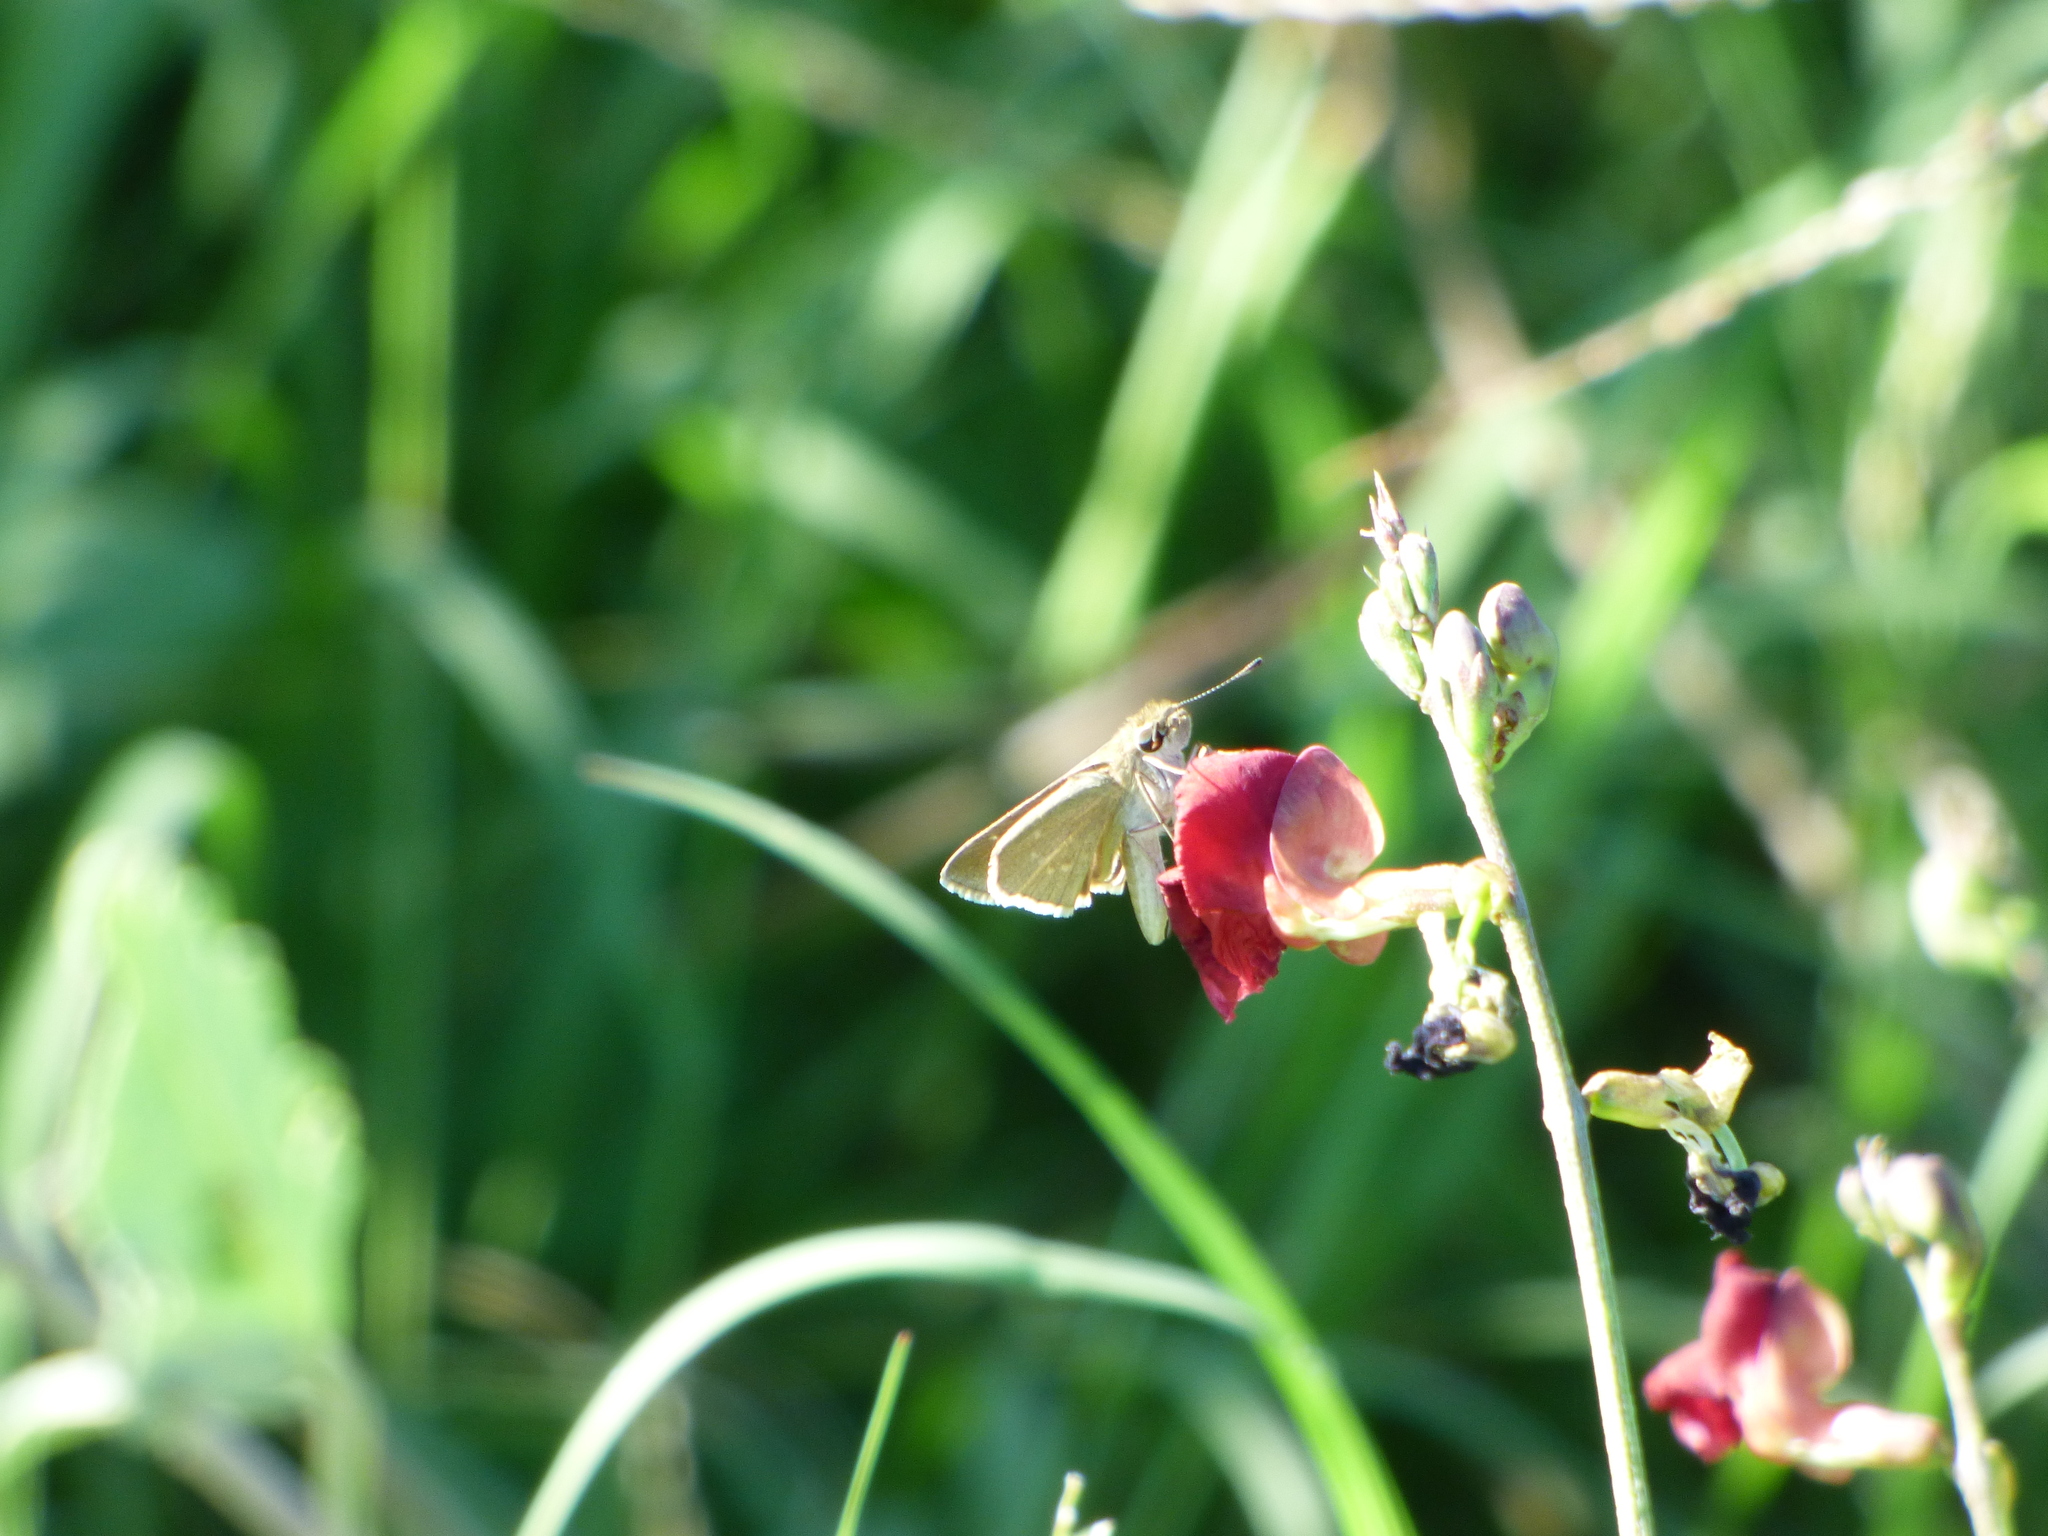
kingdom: Animalia
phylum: Arthropoda
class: Insecta
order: Lepidoptera
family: Hesperiidae
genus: Lerodea
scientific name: Lerodea eufala
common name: Eufala skipper
